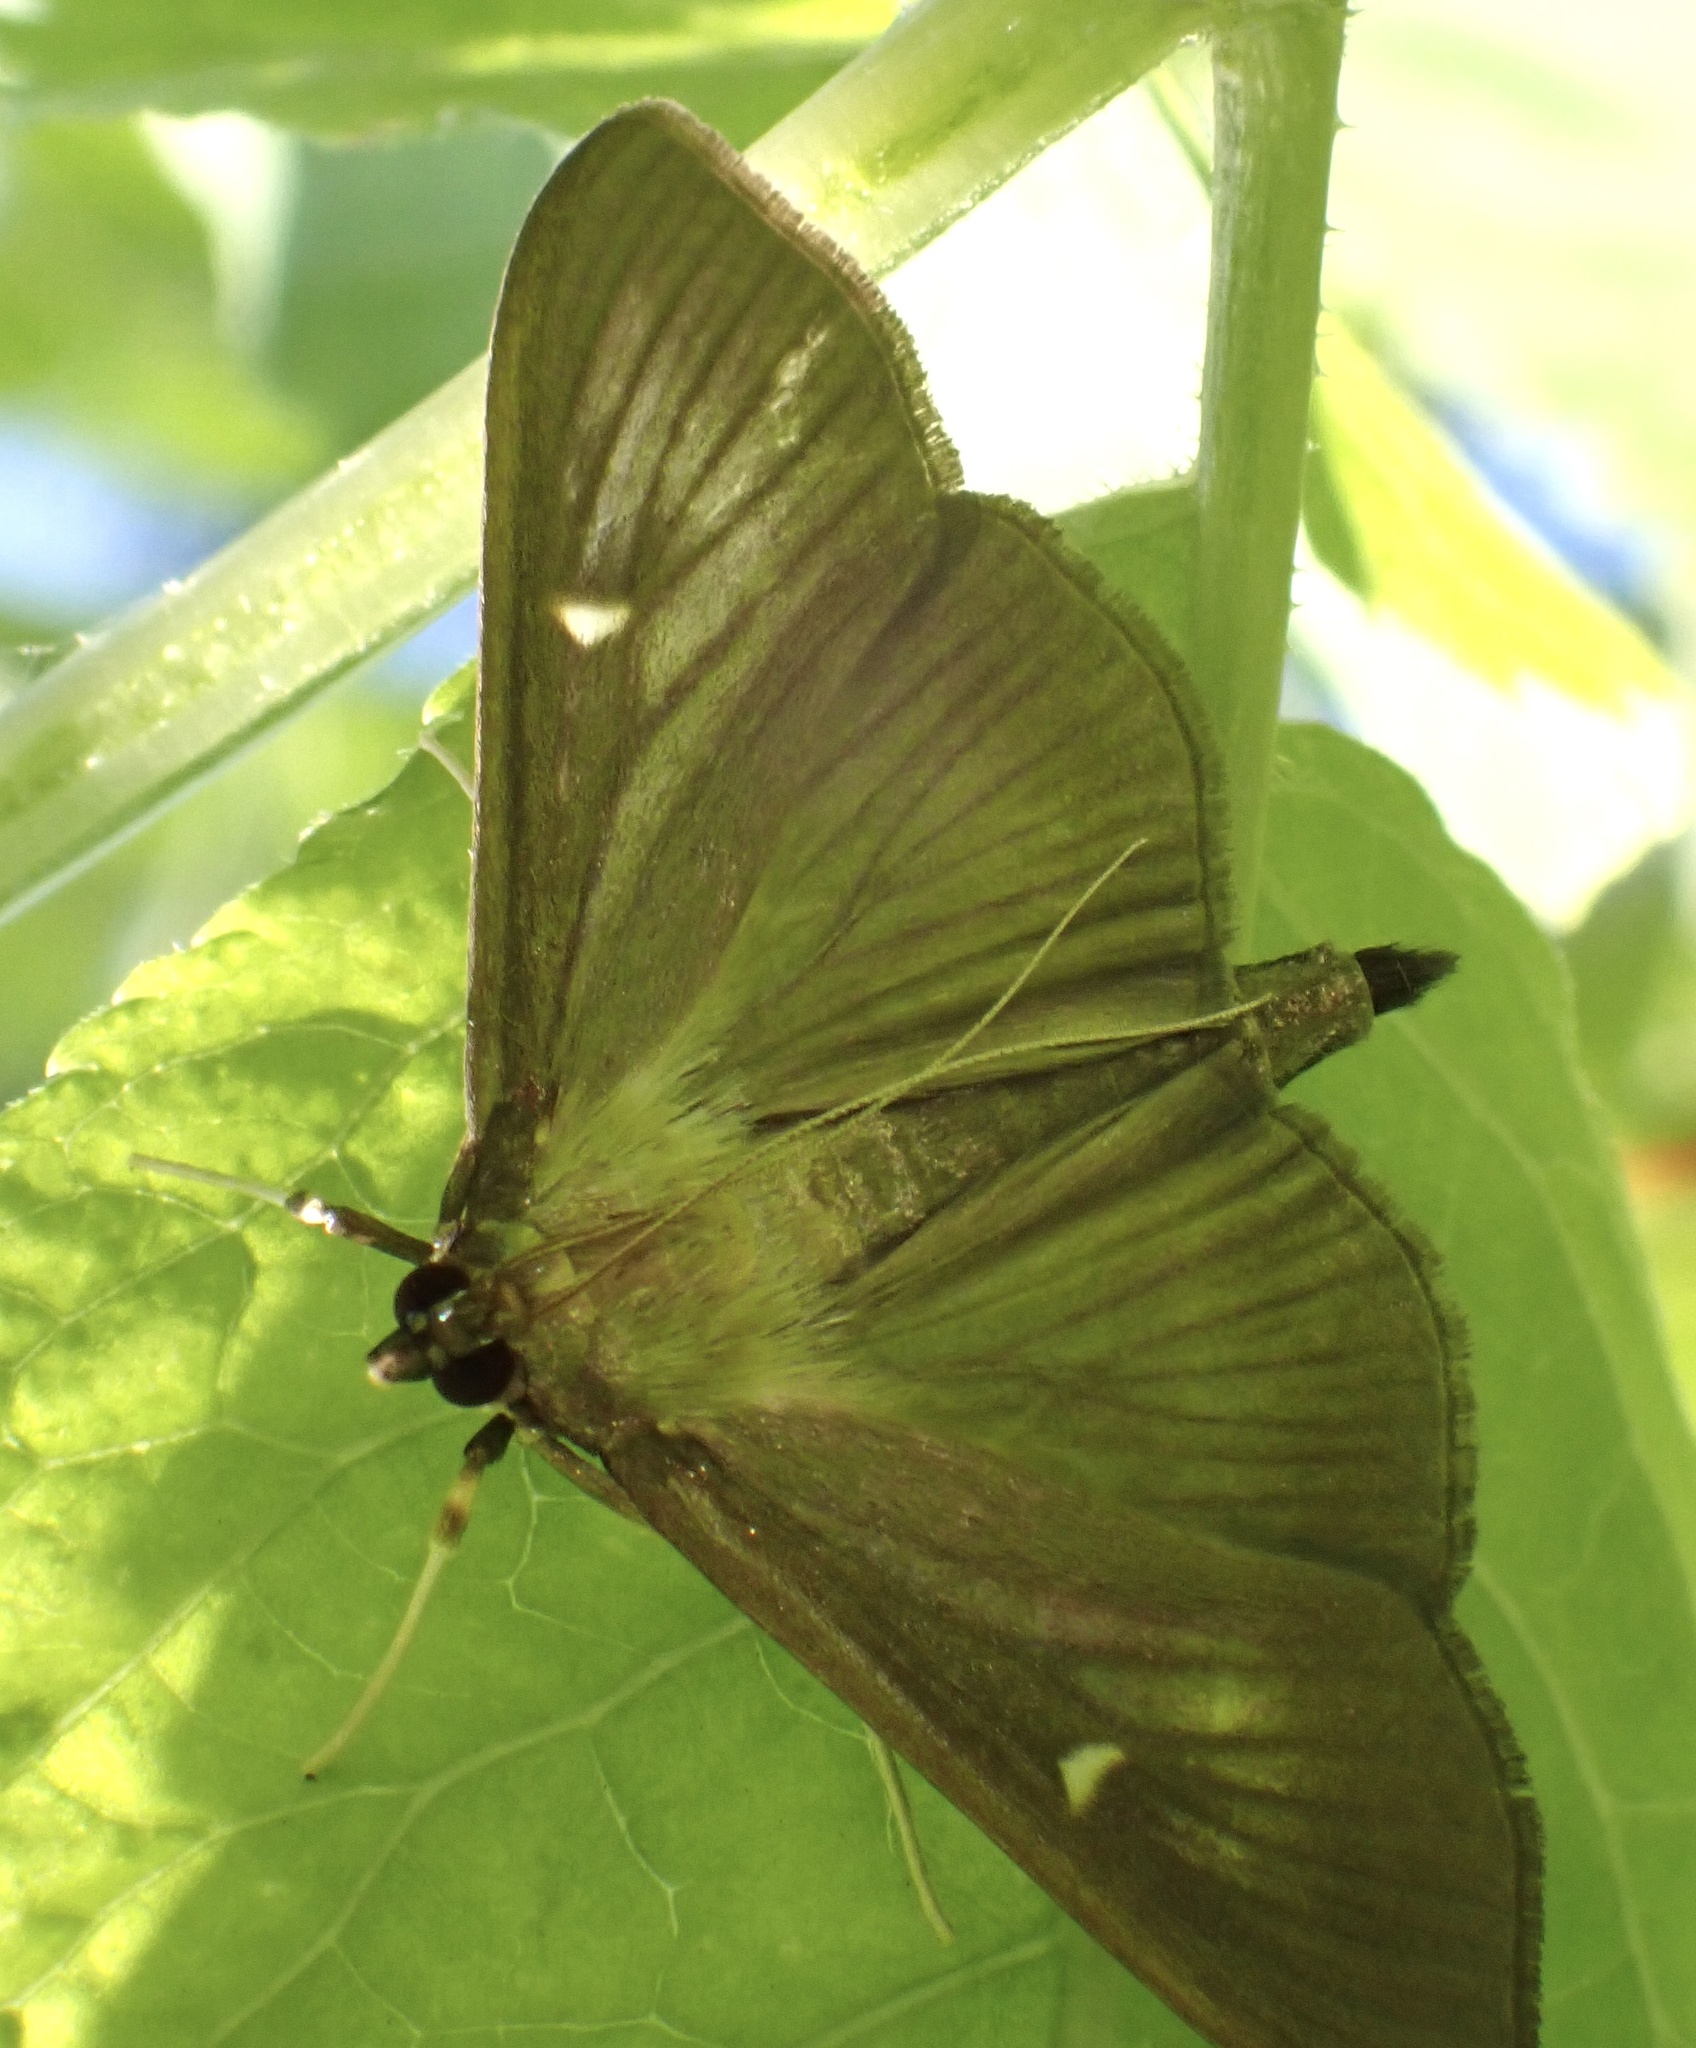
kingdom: Animalia
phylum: Arthropoda
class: Insecta
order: Lepidoptera
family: Crambidae
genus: Cydalima
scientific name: Cydalima perspectalis
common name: Box tree moth
